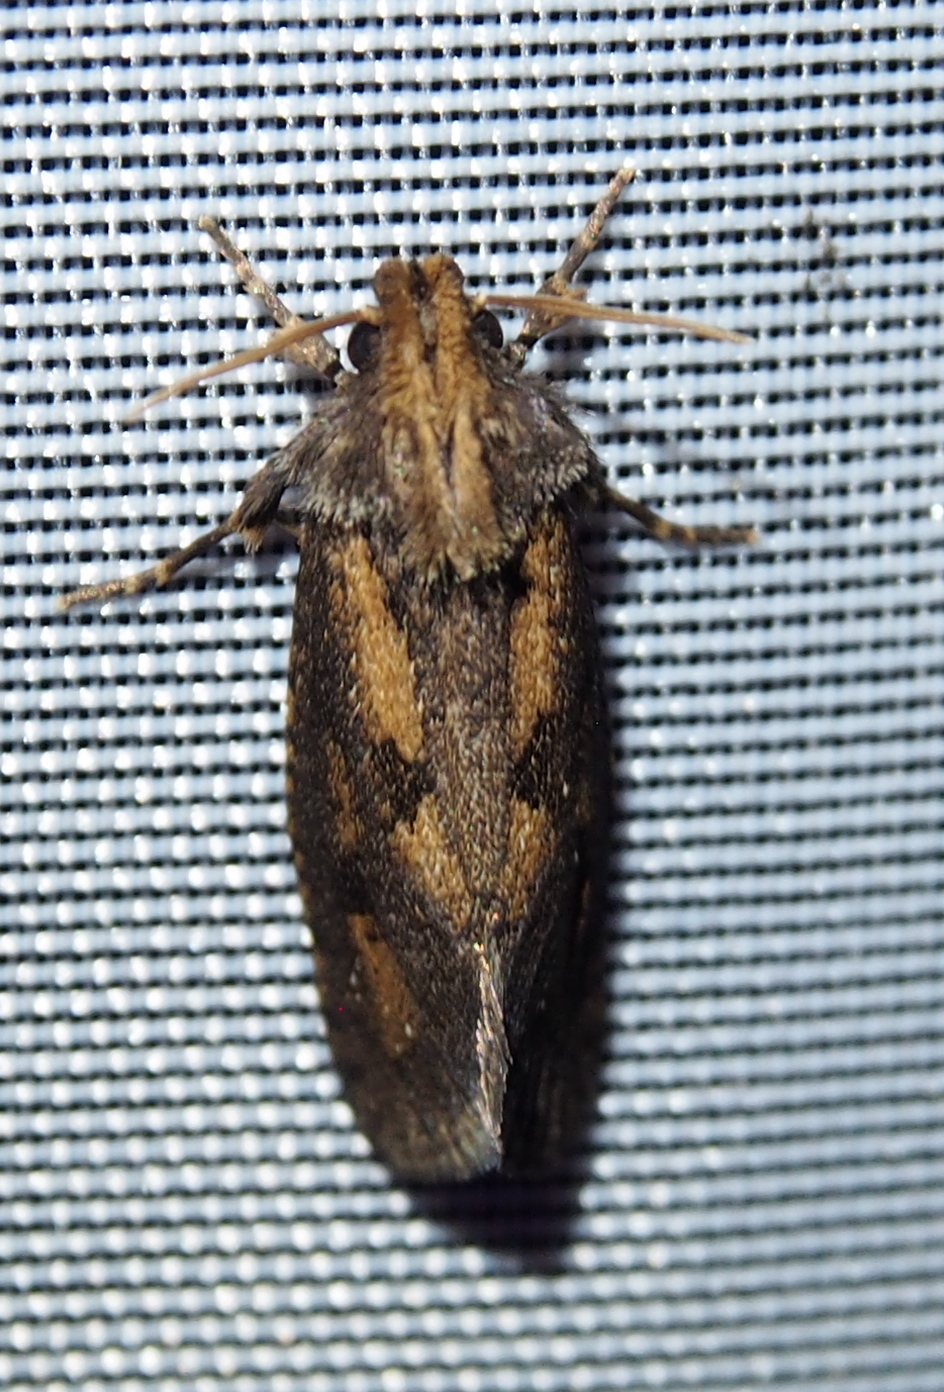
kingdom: Animalia
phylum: Arthropoda
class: Insecta
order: Lepidoptera
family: Tineidae
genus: Acrolophus
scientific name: Acrolophus popeanella
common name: Clemens' grass tubeworm moth
